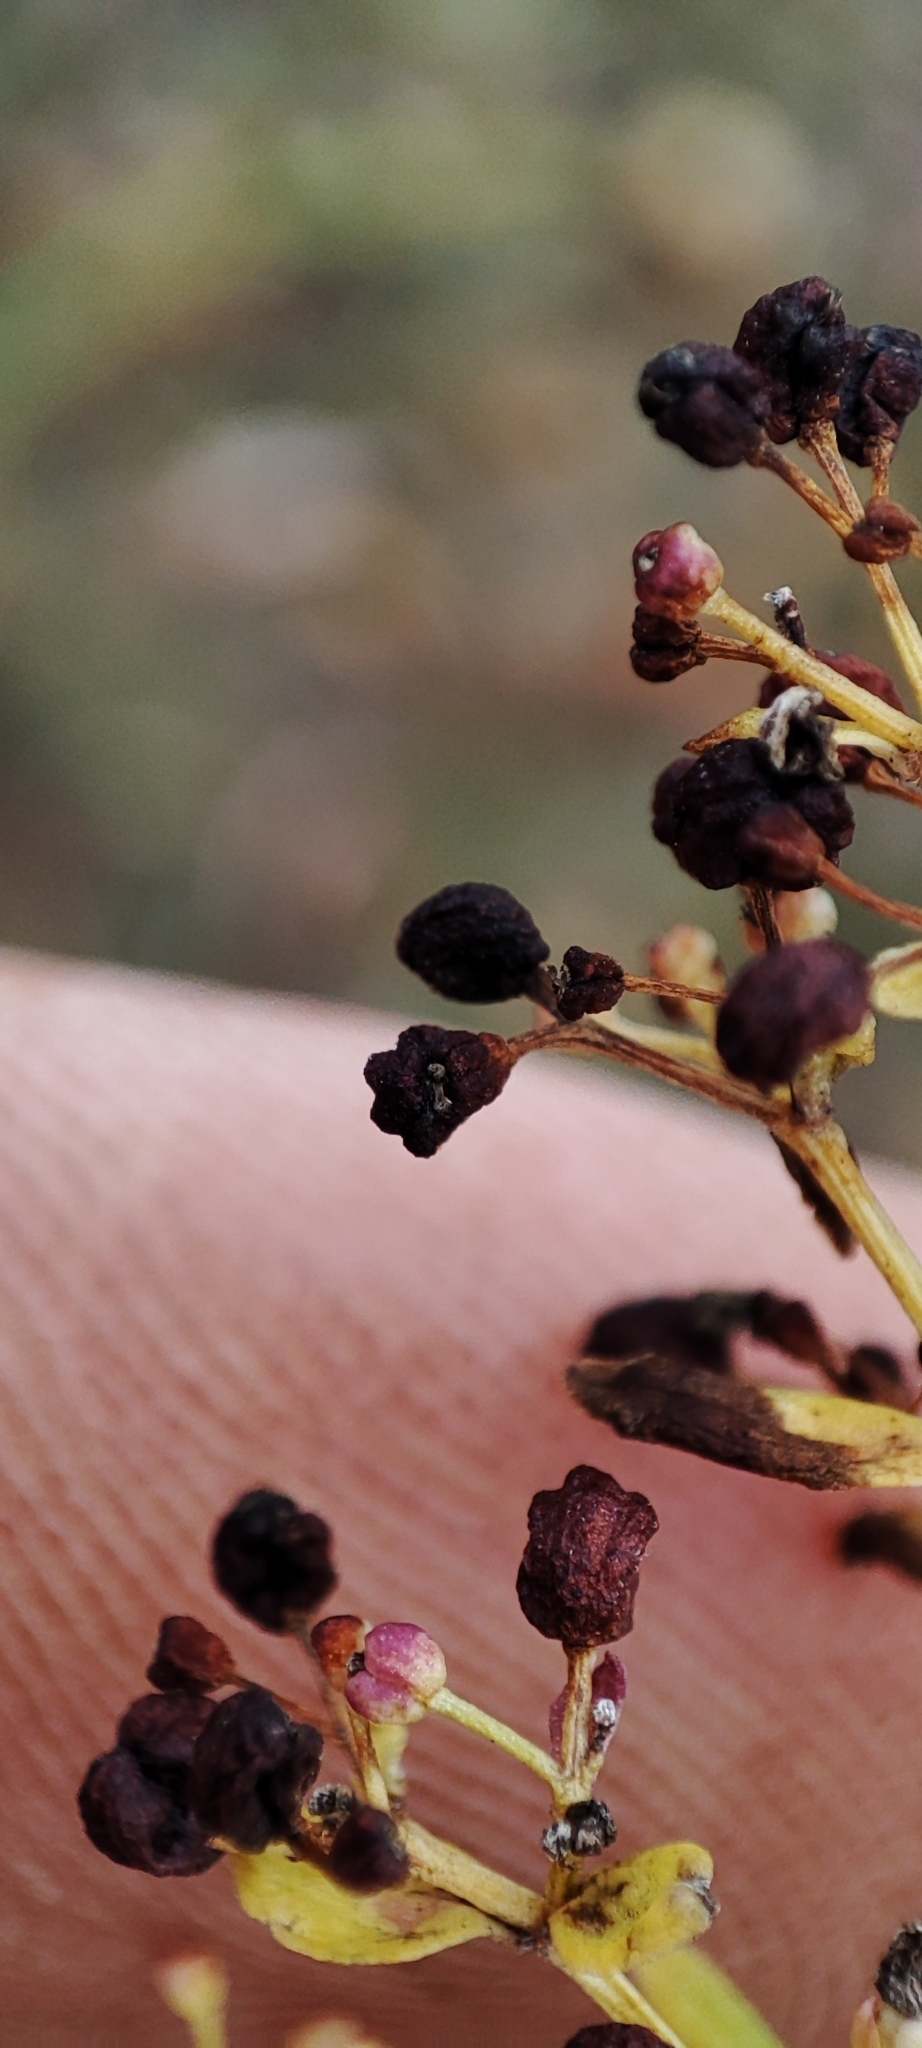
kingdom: Plantae
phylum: Tracheophyta
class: Magnoliopsida
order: Gentianales
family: Rubiaceae
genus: Galium
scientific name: Galium boreale
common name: Northern bedstraw
